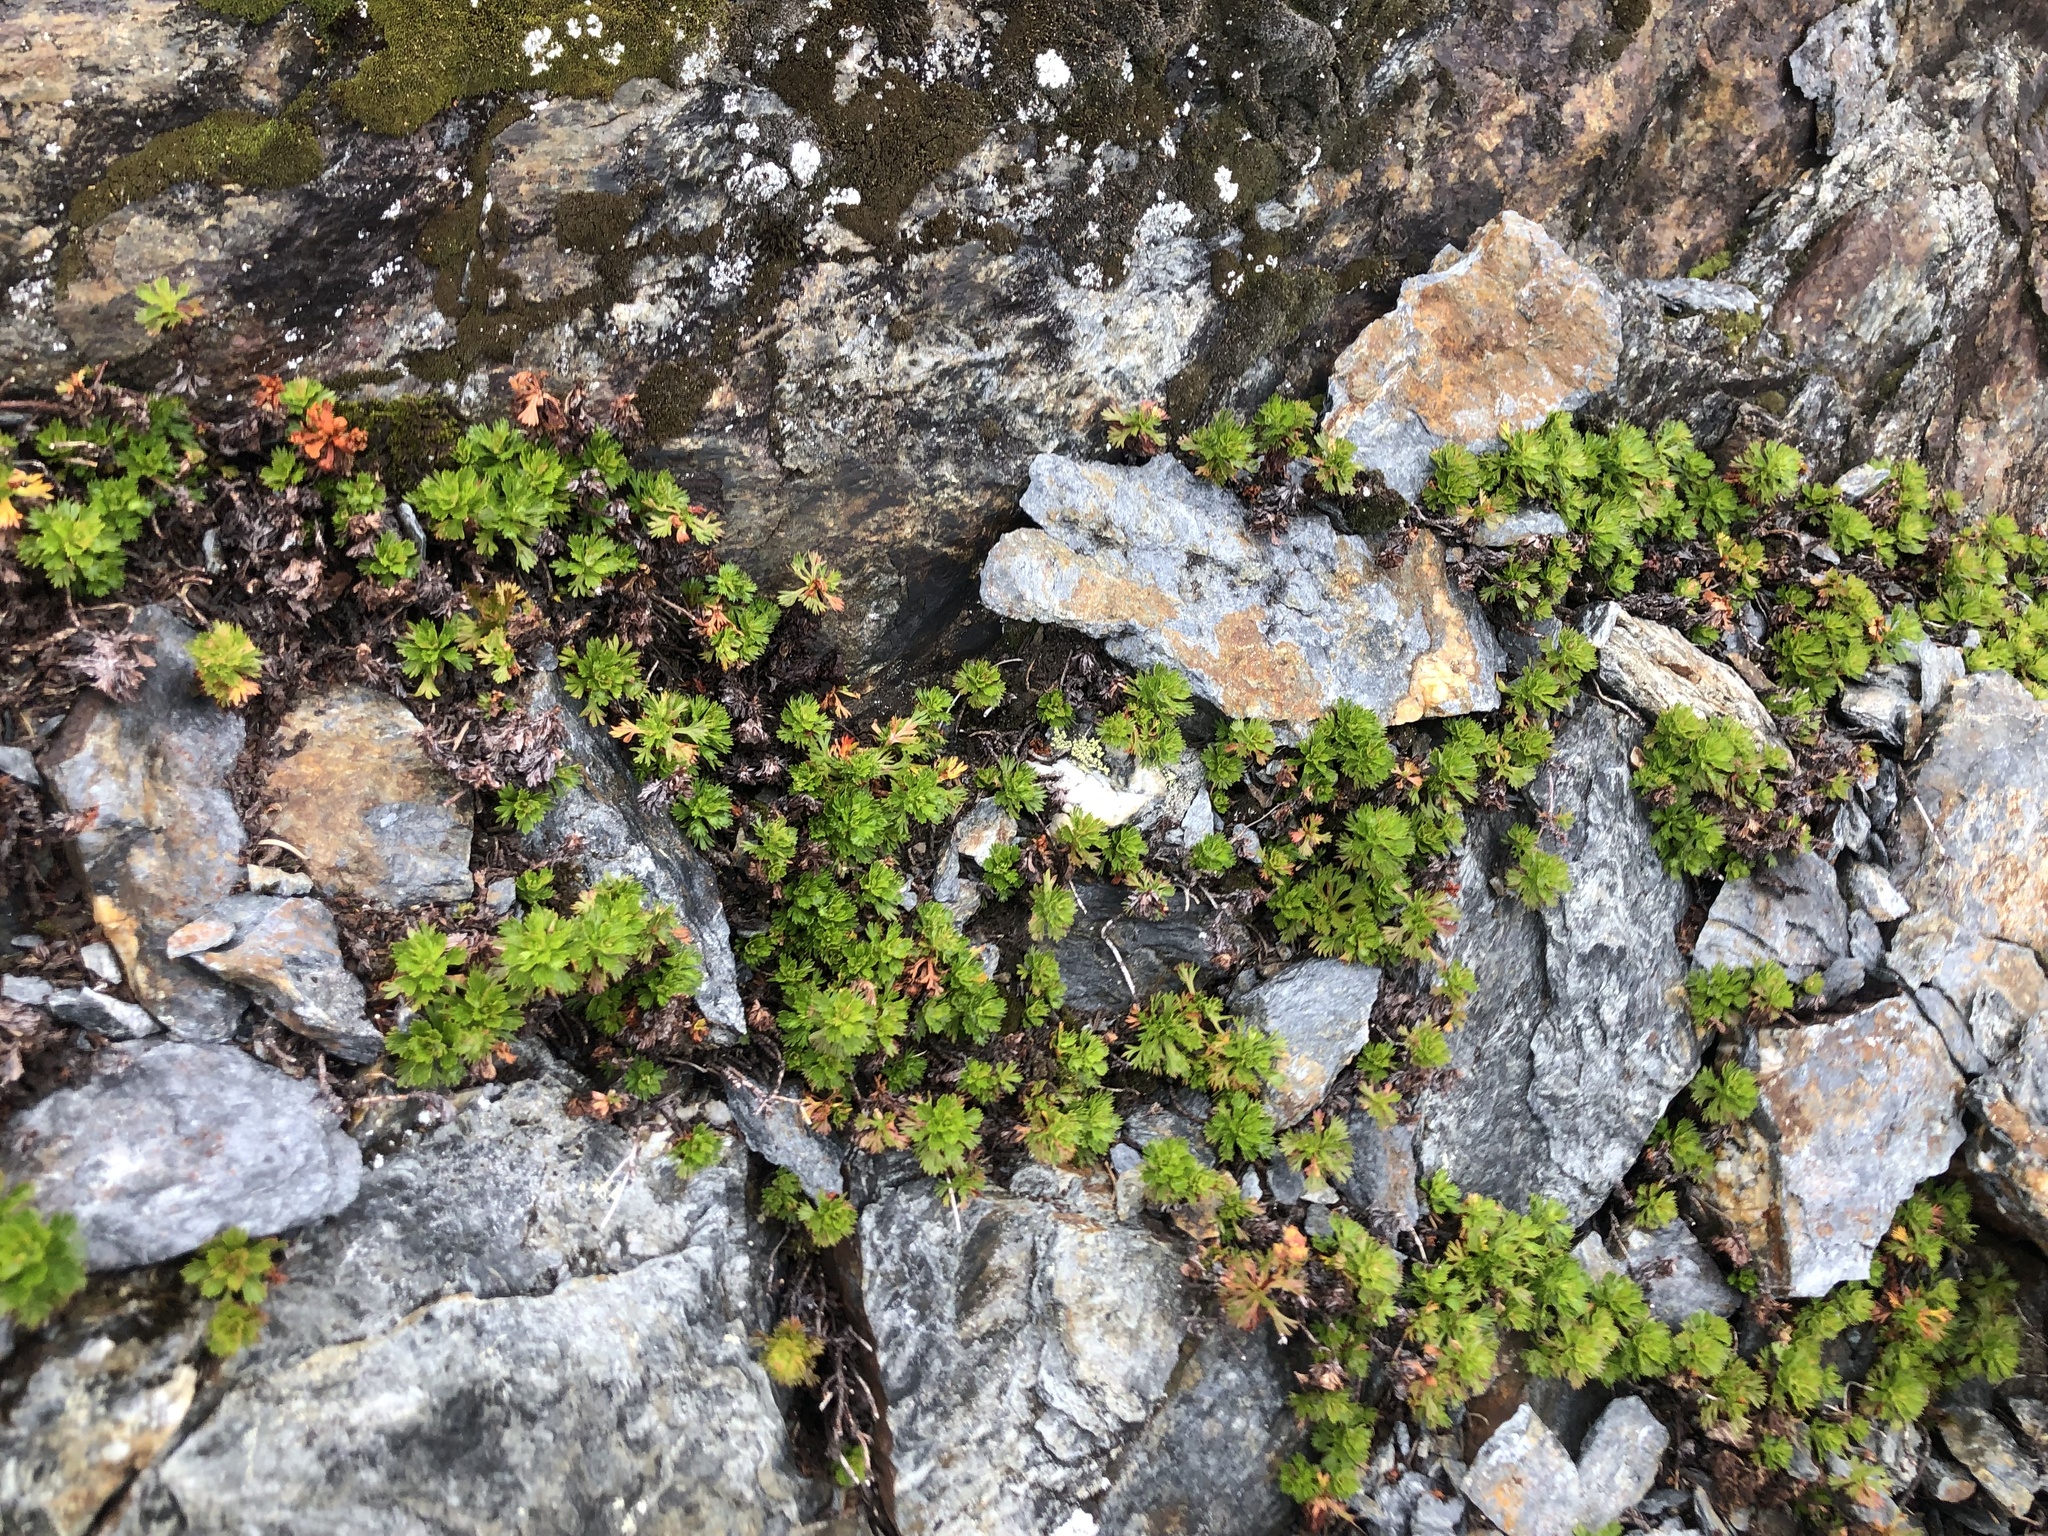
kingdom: Plantae
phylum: Tracheophyta
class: Magnoliopsida
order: Rosales
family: Rosaceae
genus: Luetkea
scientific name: Luetkea pectinata
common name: Partridgefoot
